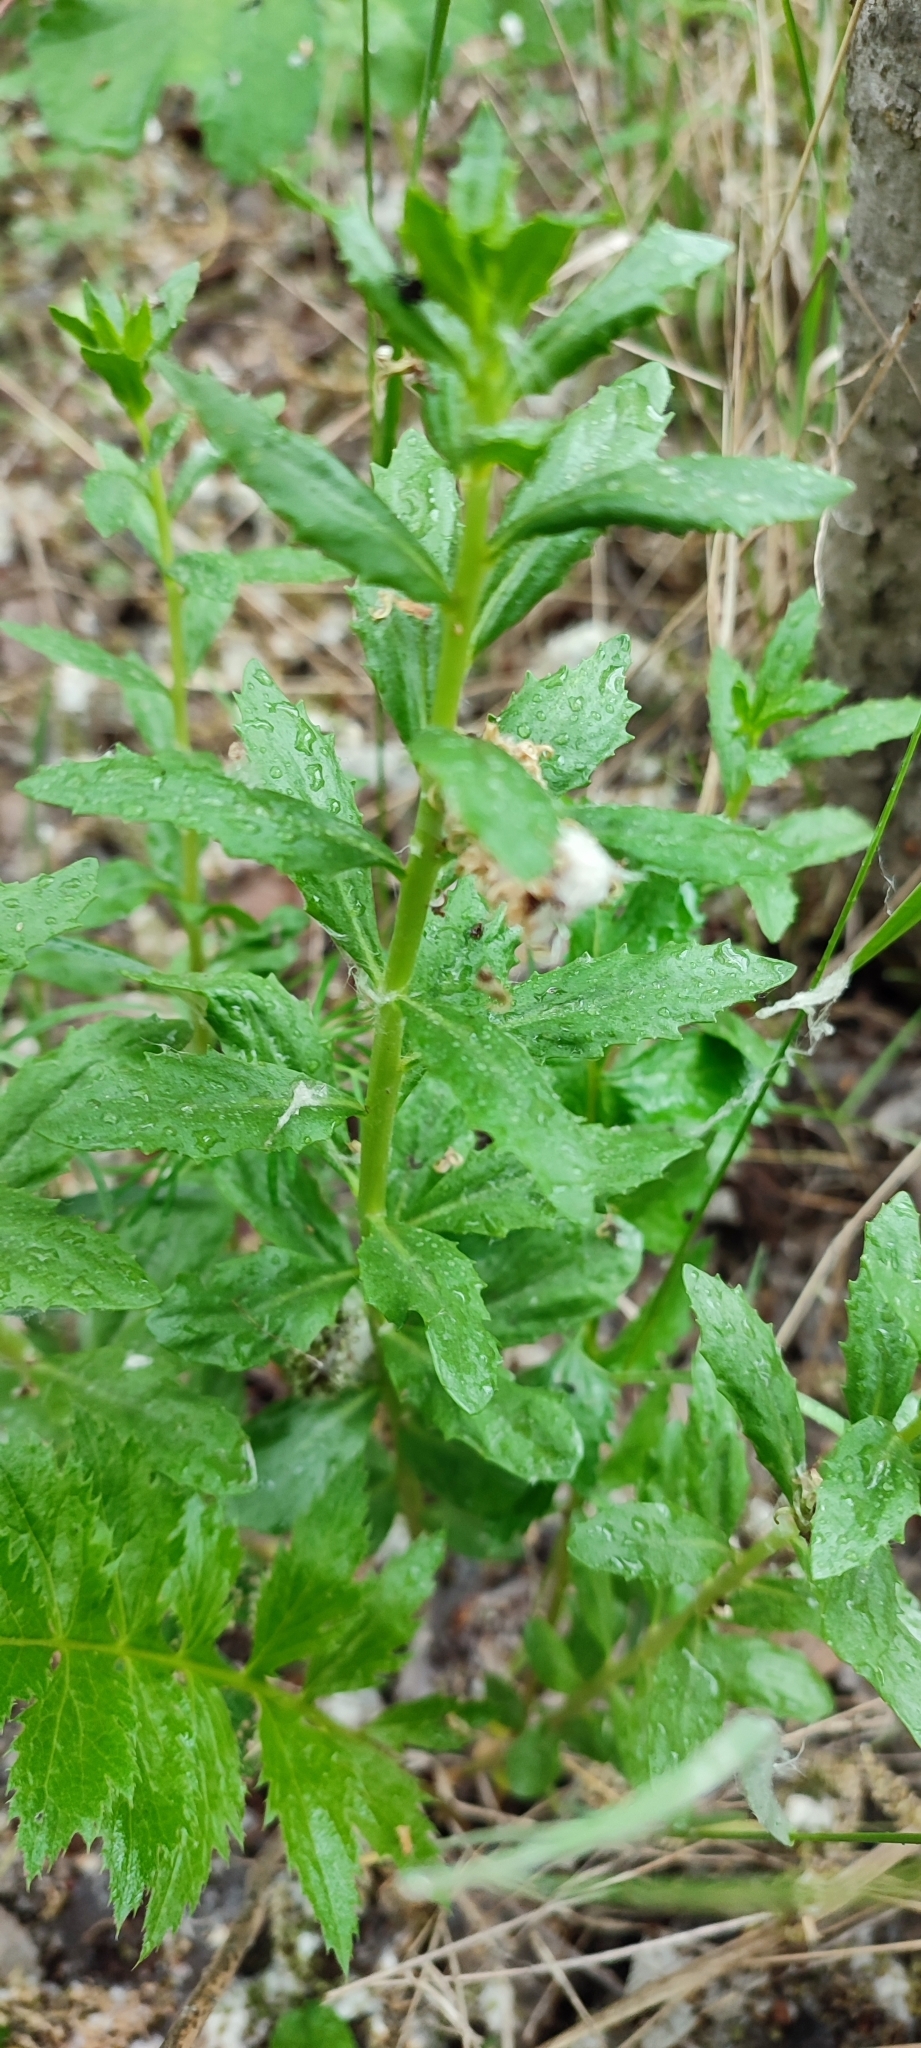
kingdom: Plantae
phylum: Tracheophyta
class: Magnoliopsida
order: Saxifragales
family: Crassulaceae
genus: Hylotelephium
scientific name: Hylotelephium telephium
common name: Live-forever
